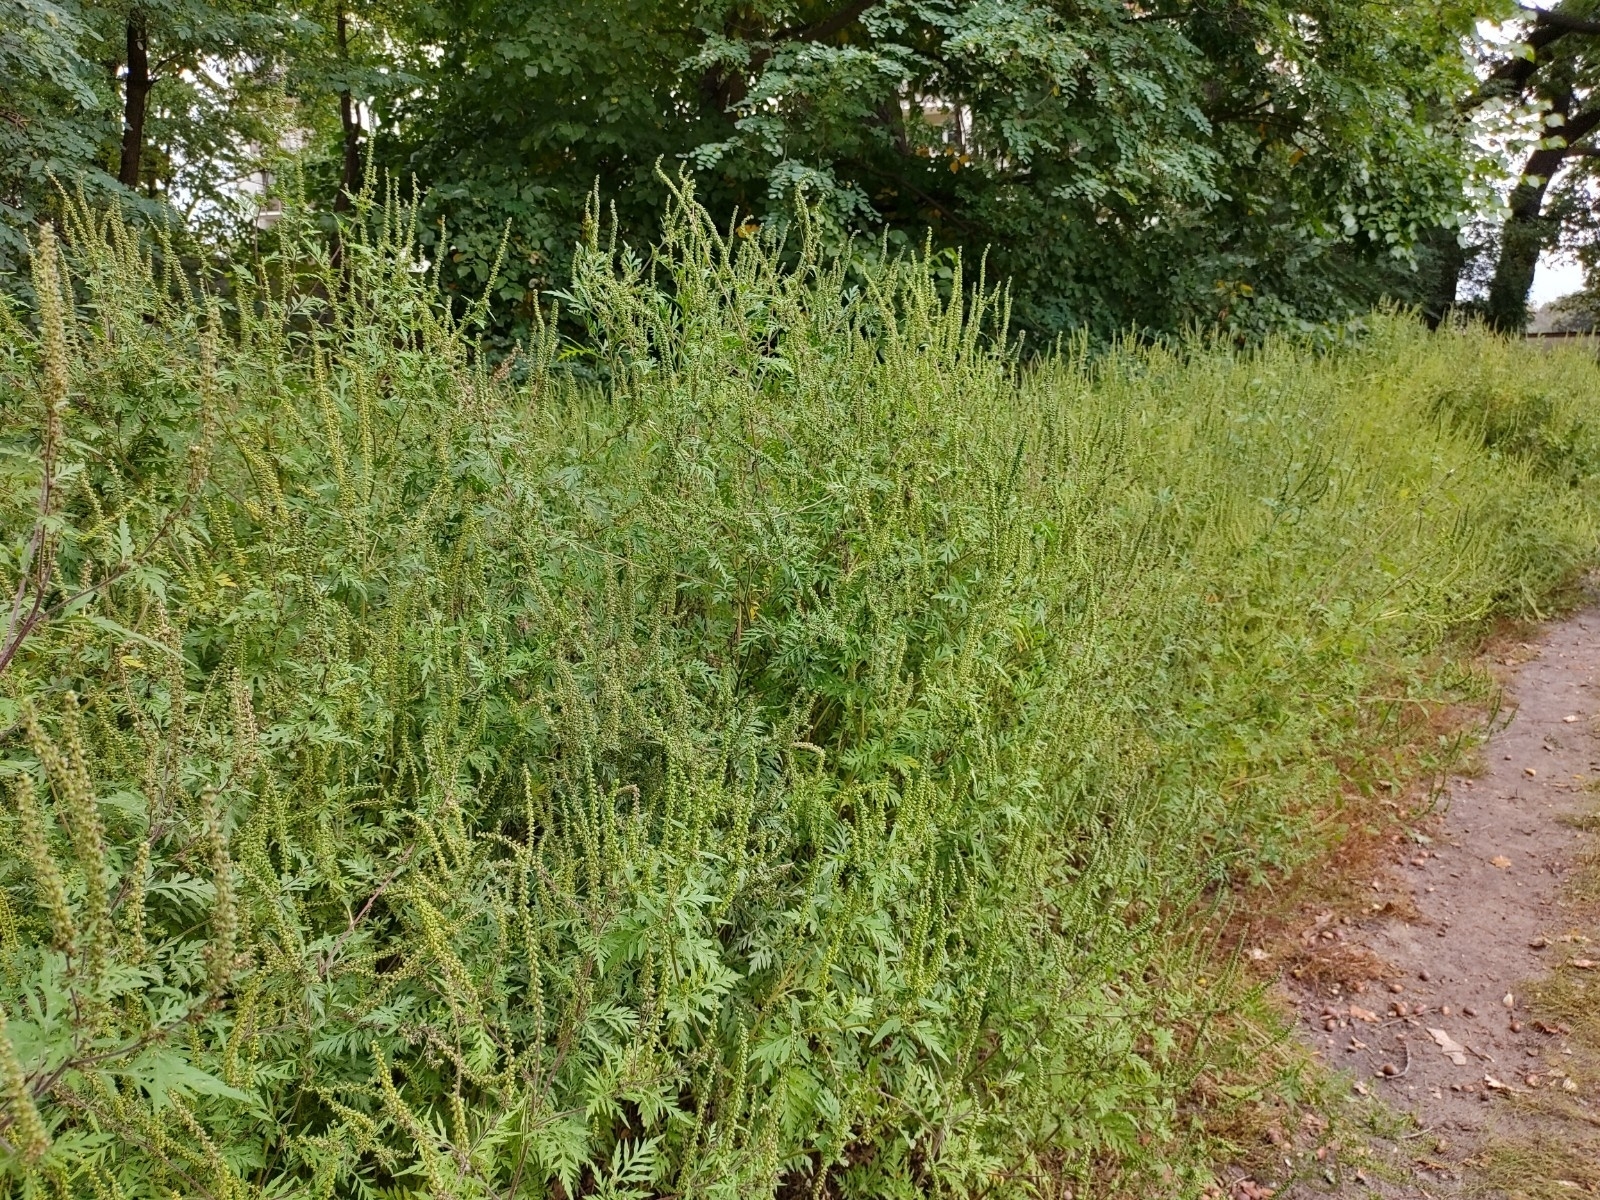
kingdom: Plantae
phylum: Tracheophyta
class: Magnoliopsida
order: Asterales
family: Asteraceae
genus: Ambrosia
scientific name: Ambrosia artemisiifolia
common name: Annual ragweed
